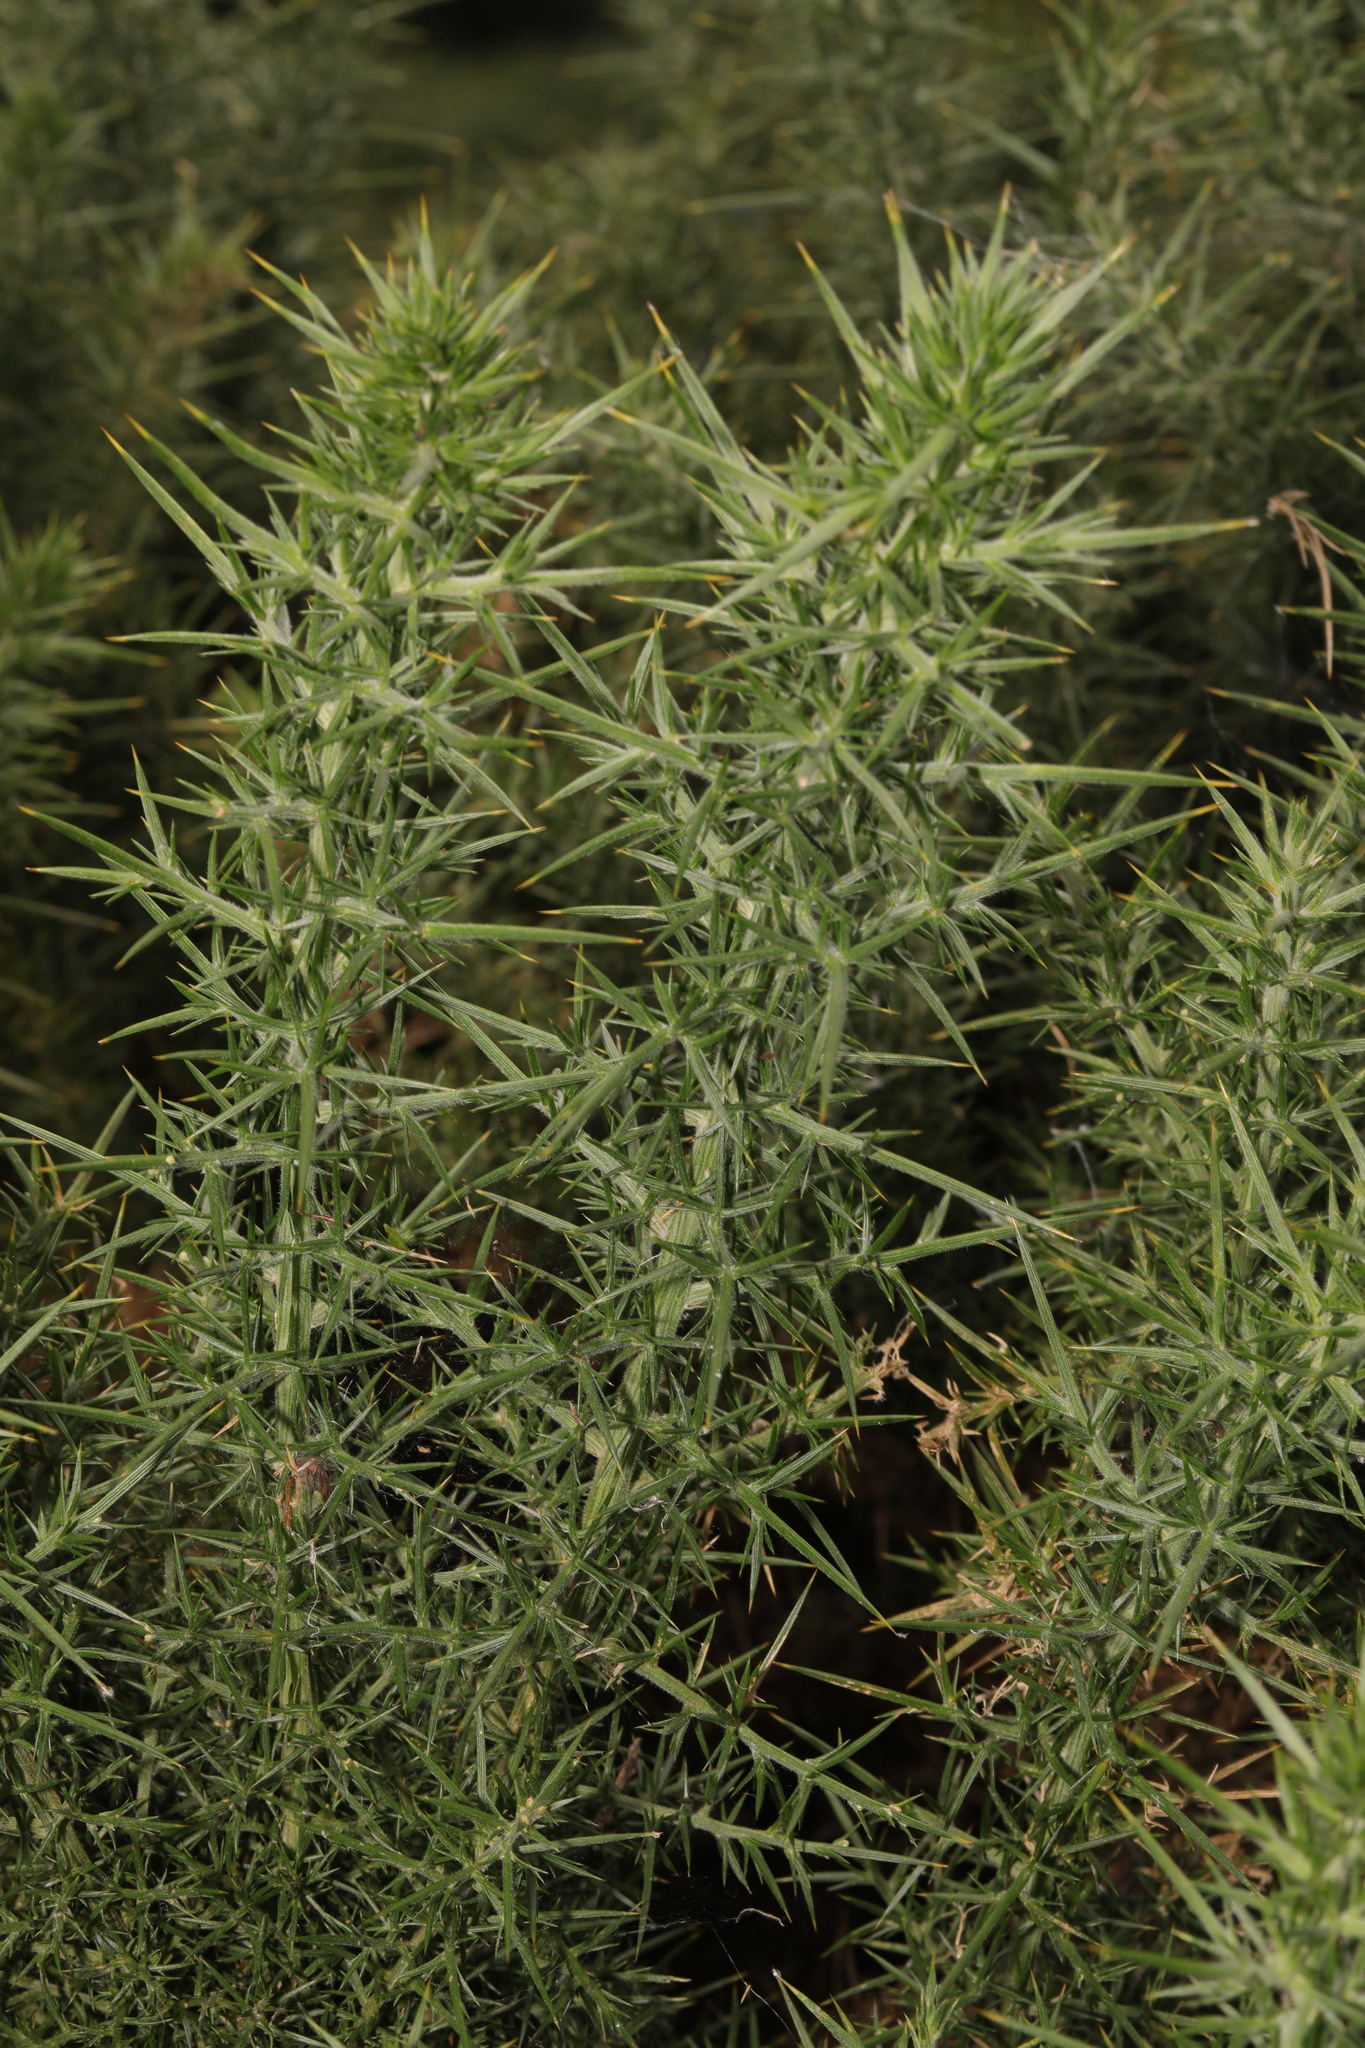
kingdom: Plantae
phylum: Tracheophyta
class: Magnoliopsida
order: Fabales
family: Fabaceae
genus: Ulex
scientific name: Ulex europaeus
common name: Common gorse
